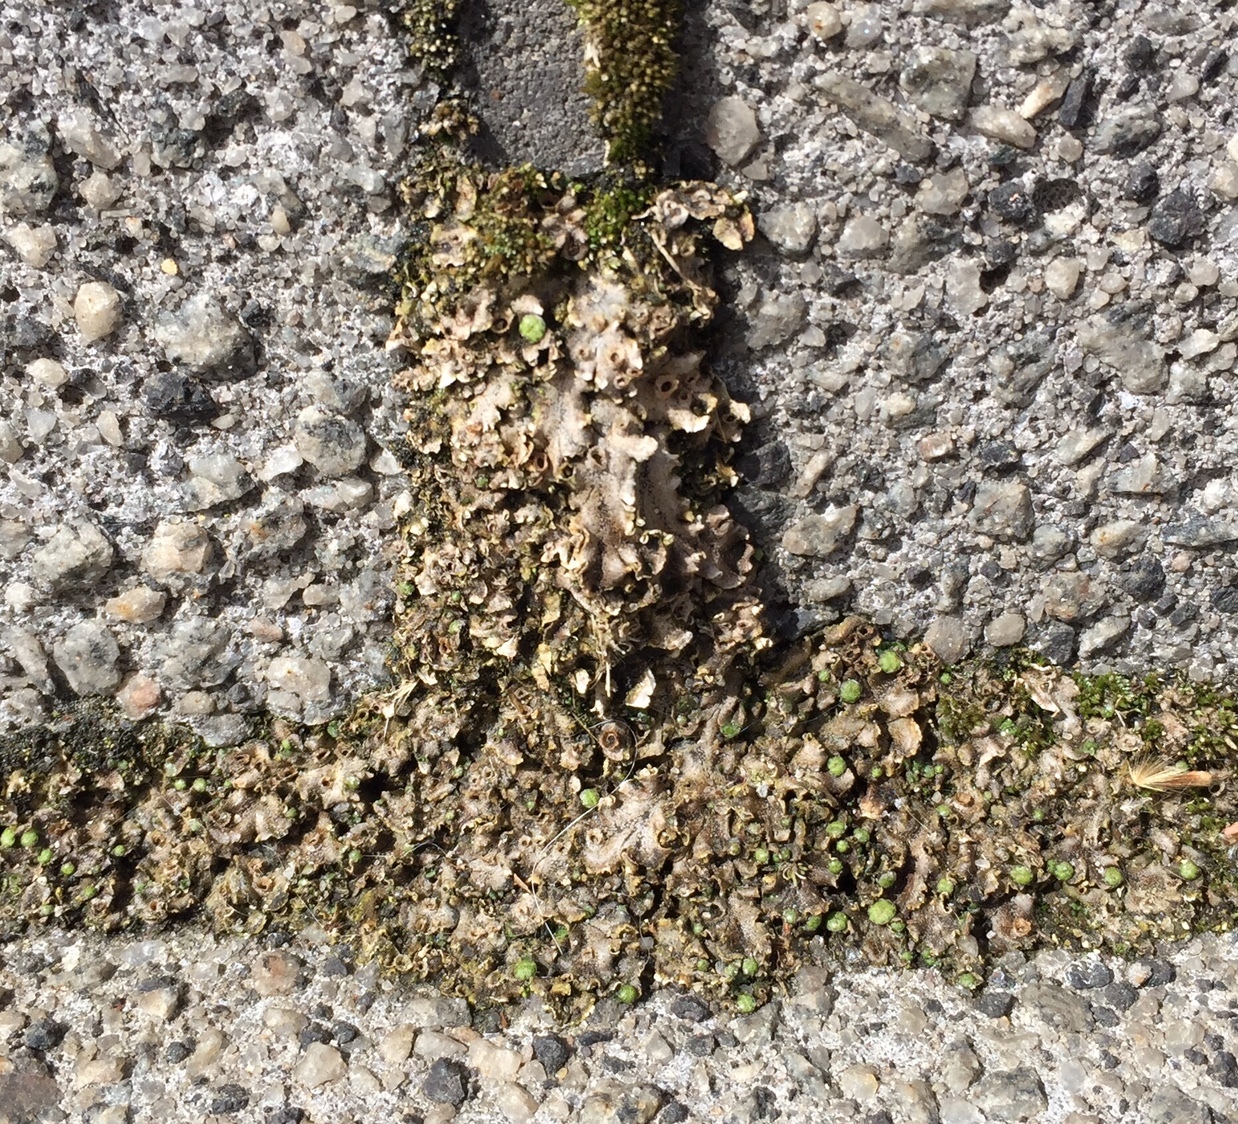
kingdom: Plantae
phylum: Marchantiophyta
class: Marchantiopsida
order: Marchantiales
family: Marchantiaceae
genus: Marchantia
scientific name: Marchantia polymorpha
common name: Common liverwort
